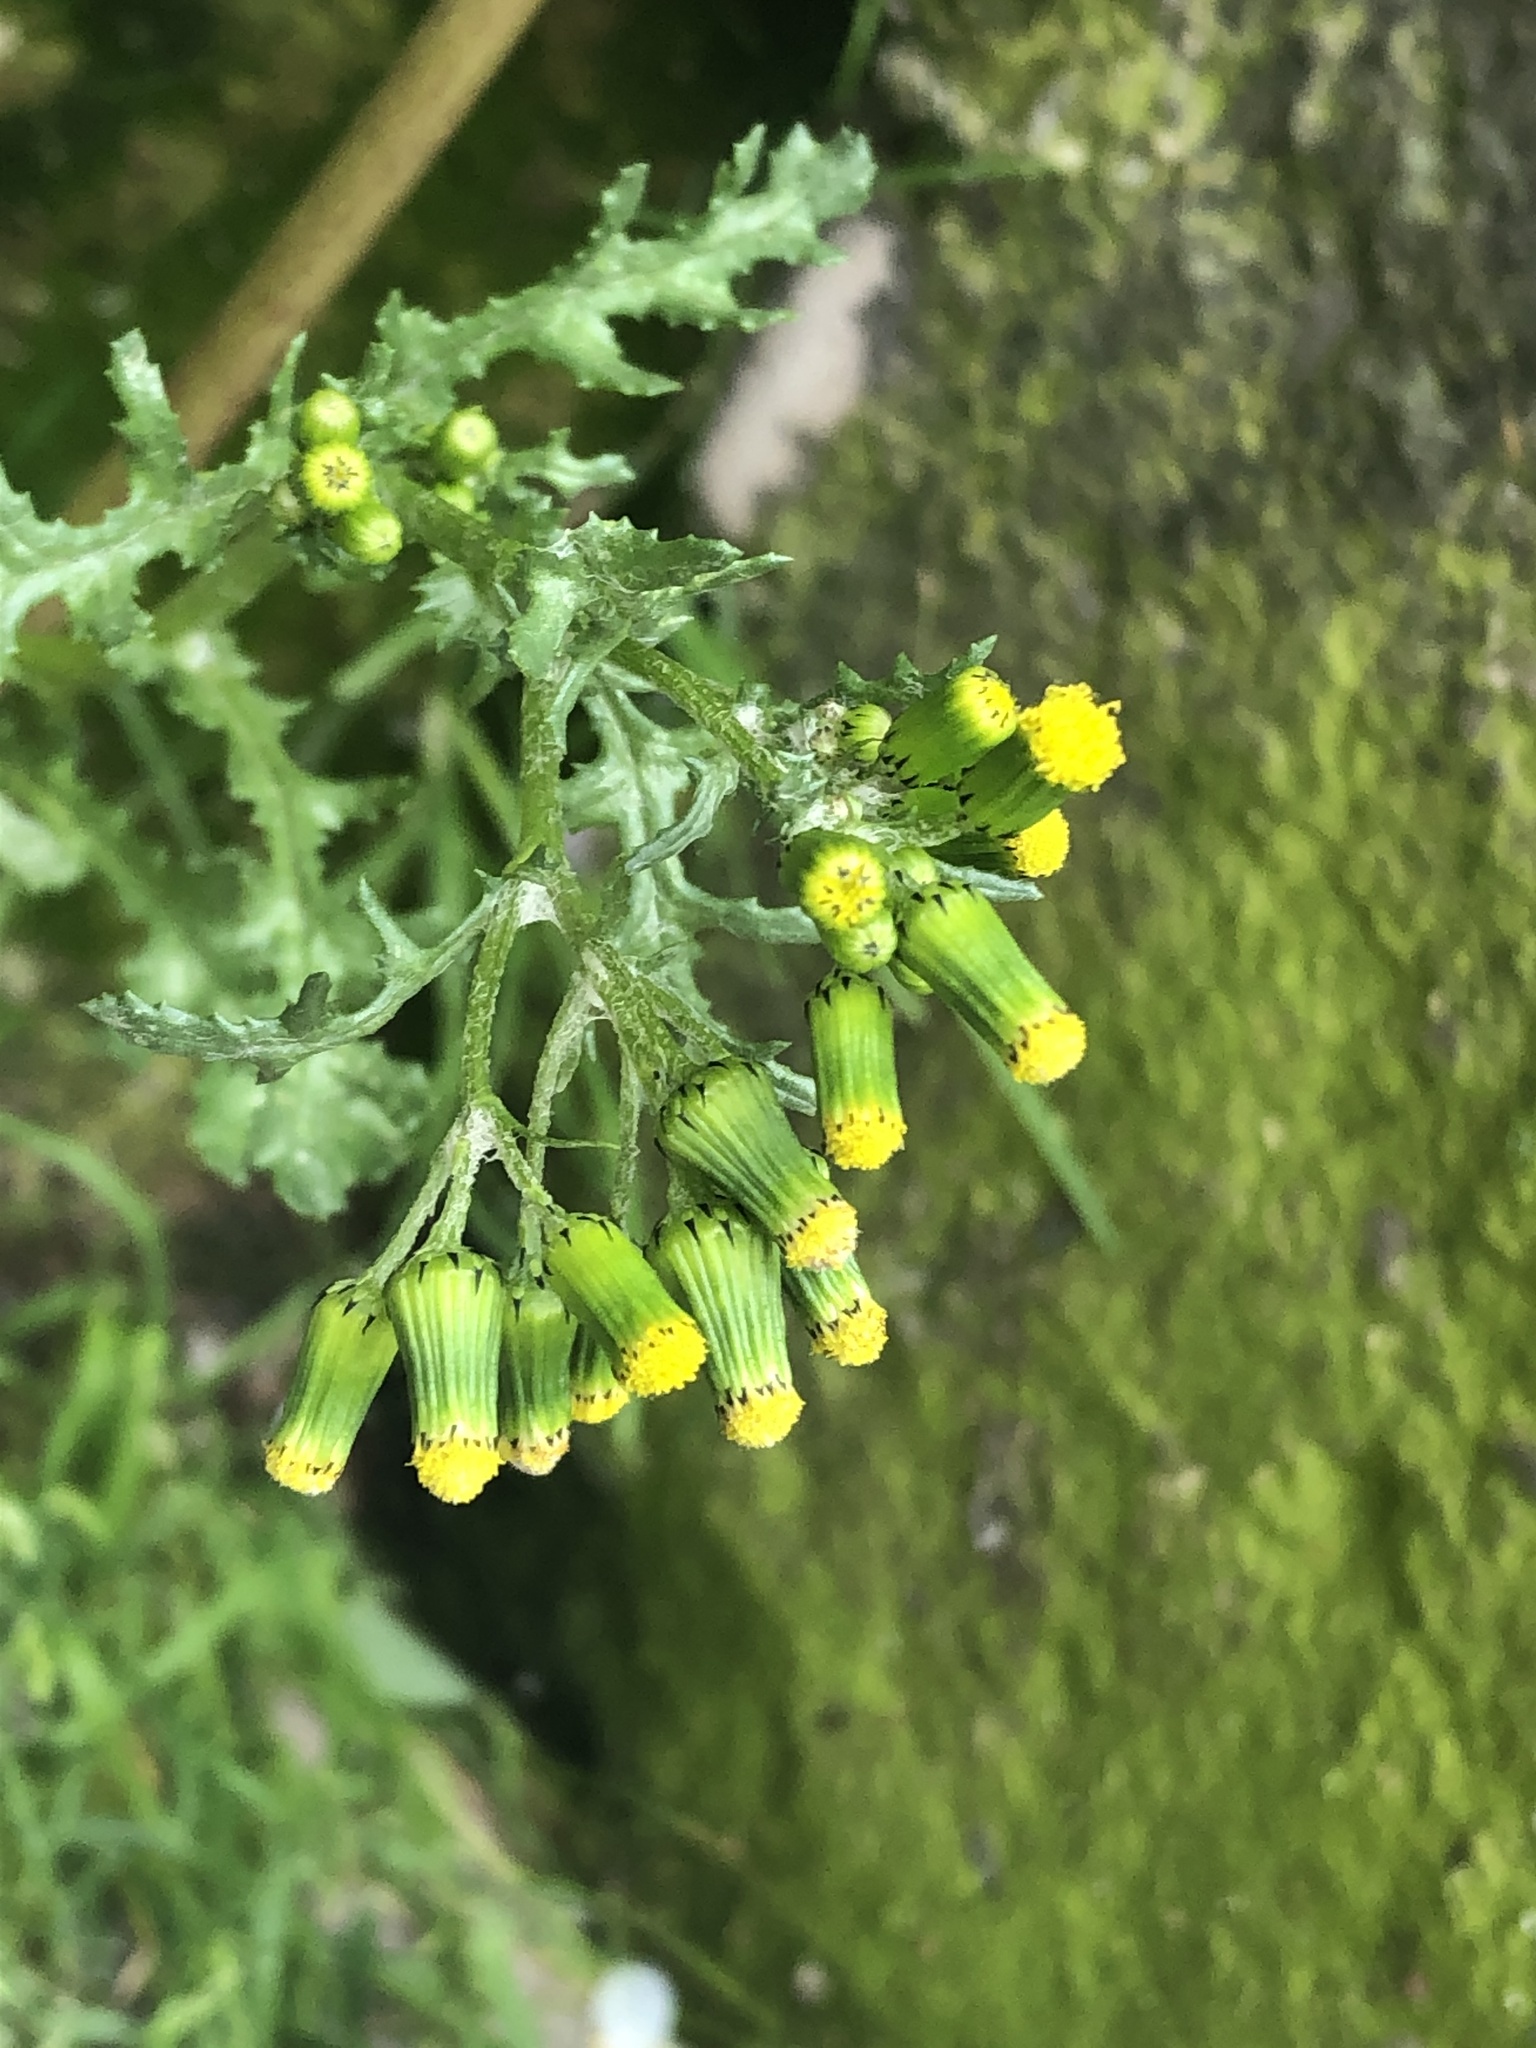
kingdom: Plantae
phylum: Tracheophyta
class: Magnoliopsida
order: Asterales
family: Asteraceae
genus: Senecio
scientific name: Senecio vulgaris
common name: Old-man-in-the-spring
